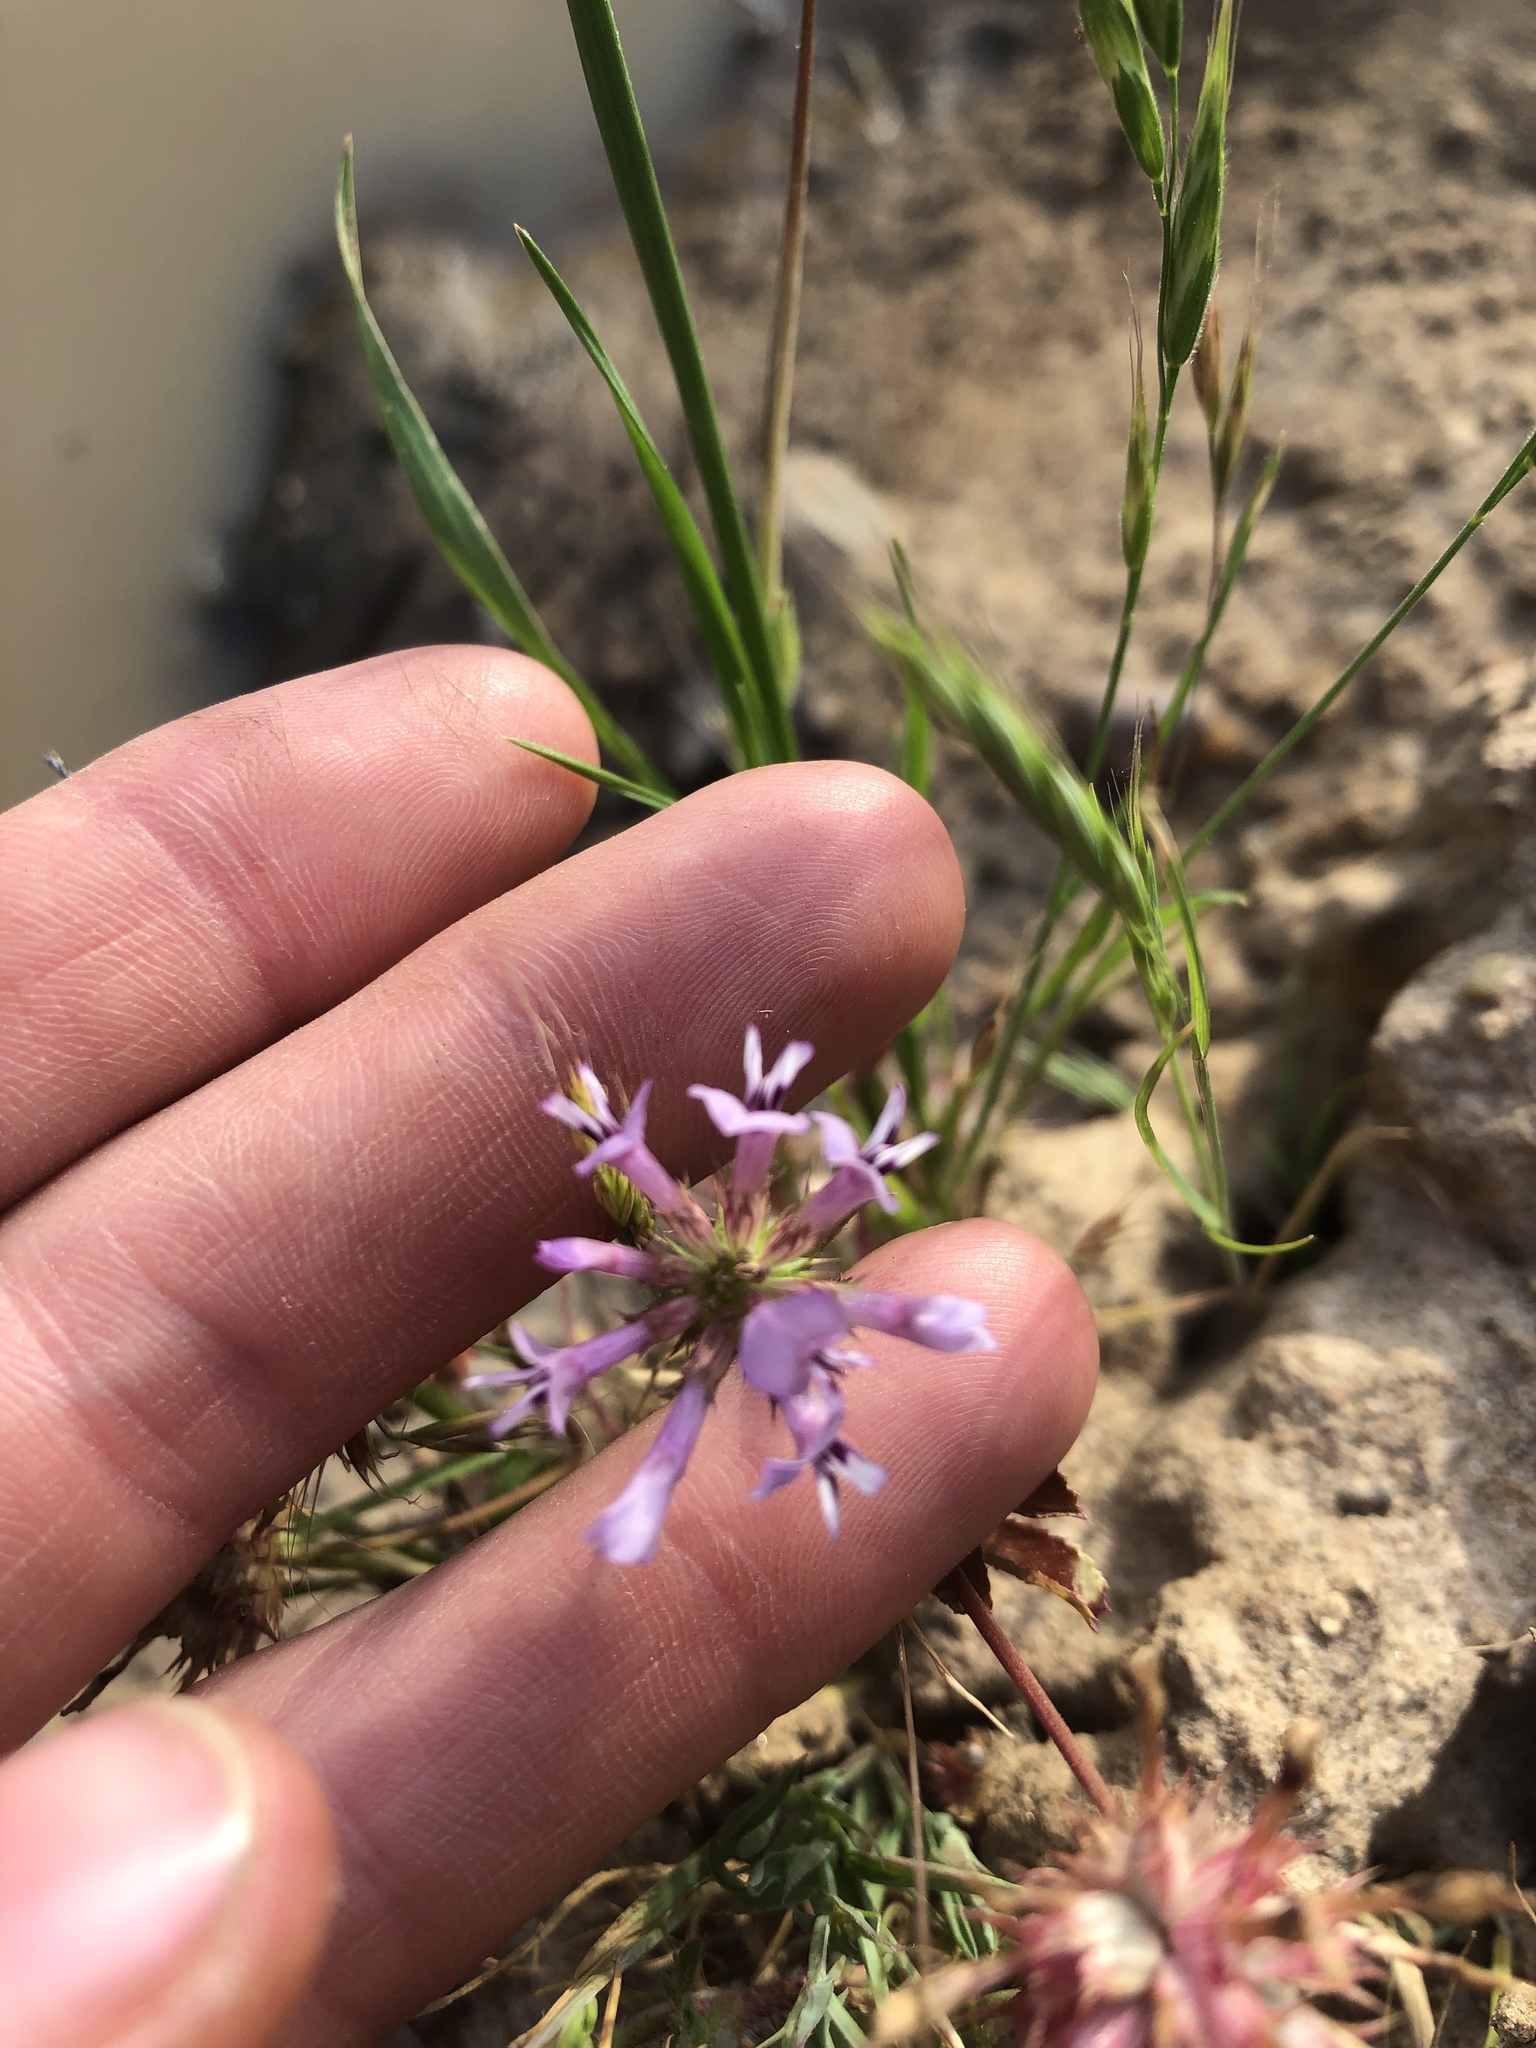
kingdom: Plantae
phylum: Tracheophyta
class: Magnoliopsida
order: Fabales
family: Fabaceae
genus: Trifolium
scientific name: Trifolium willdenovii
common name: Tomcat clover
